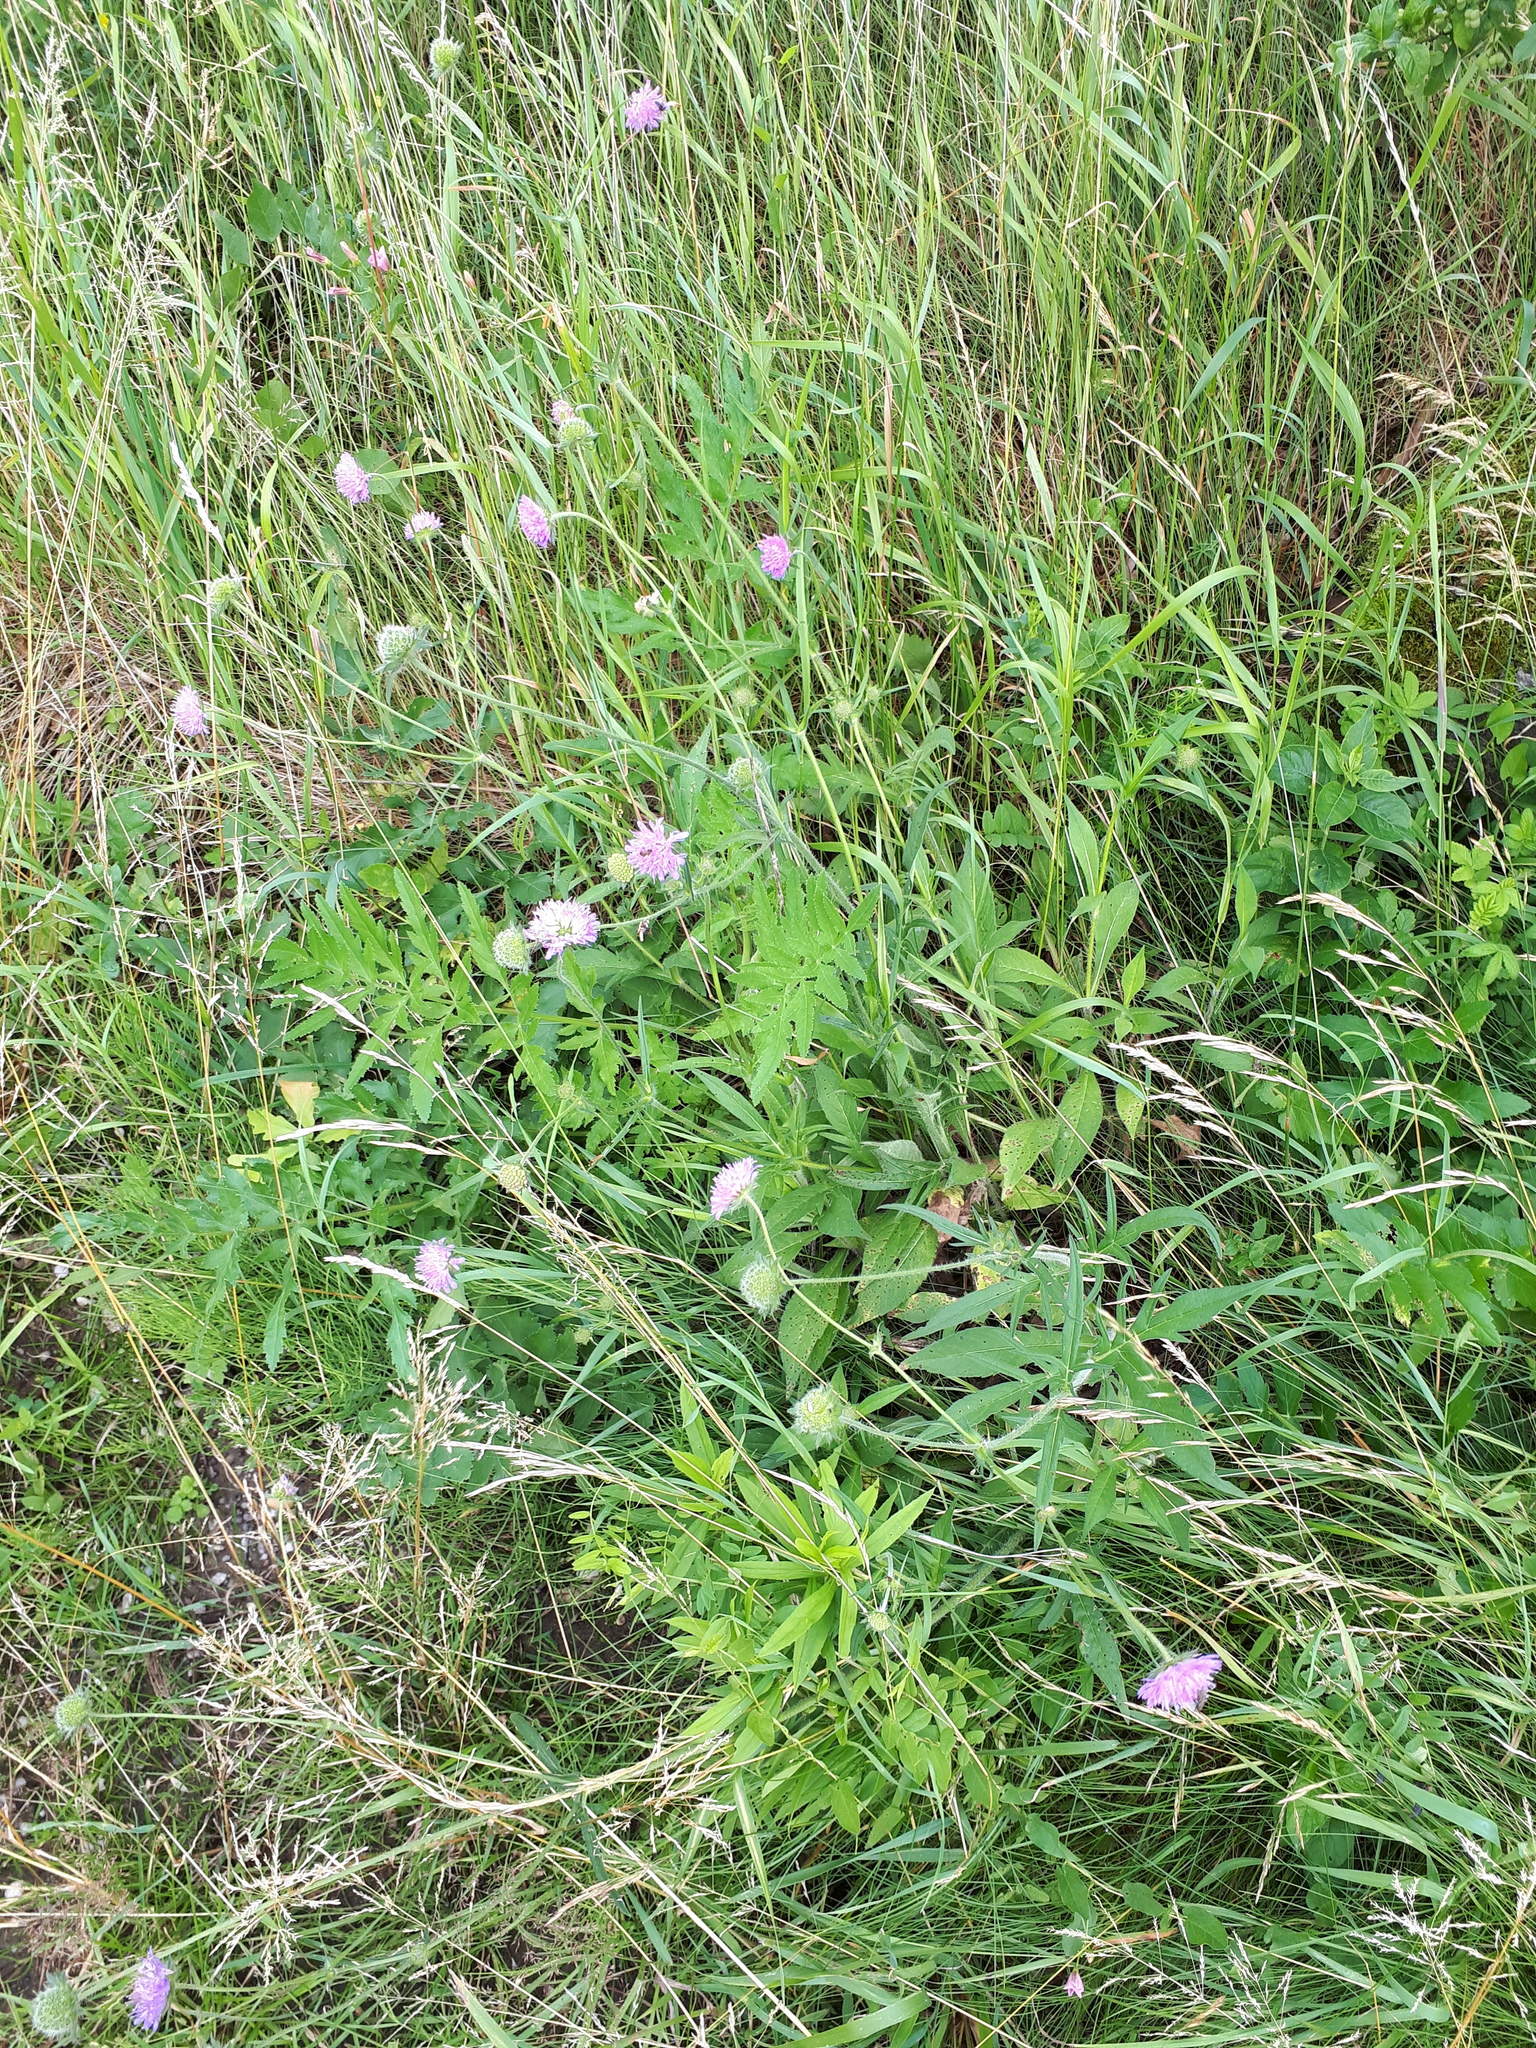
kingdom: Plantae
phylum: Tracheophyta
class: Magnoliopsida
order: Dipsacales
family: Caprifoliaceae
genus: Knautia
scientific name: Knautia arvensis
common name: Field scabiosa
